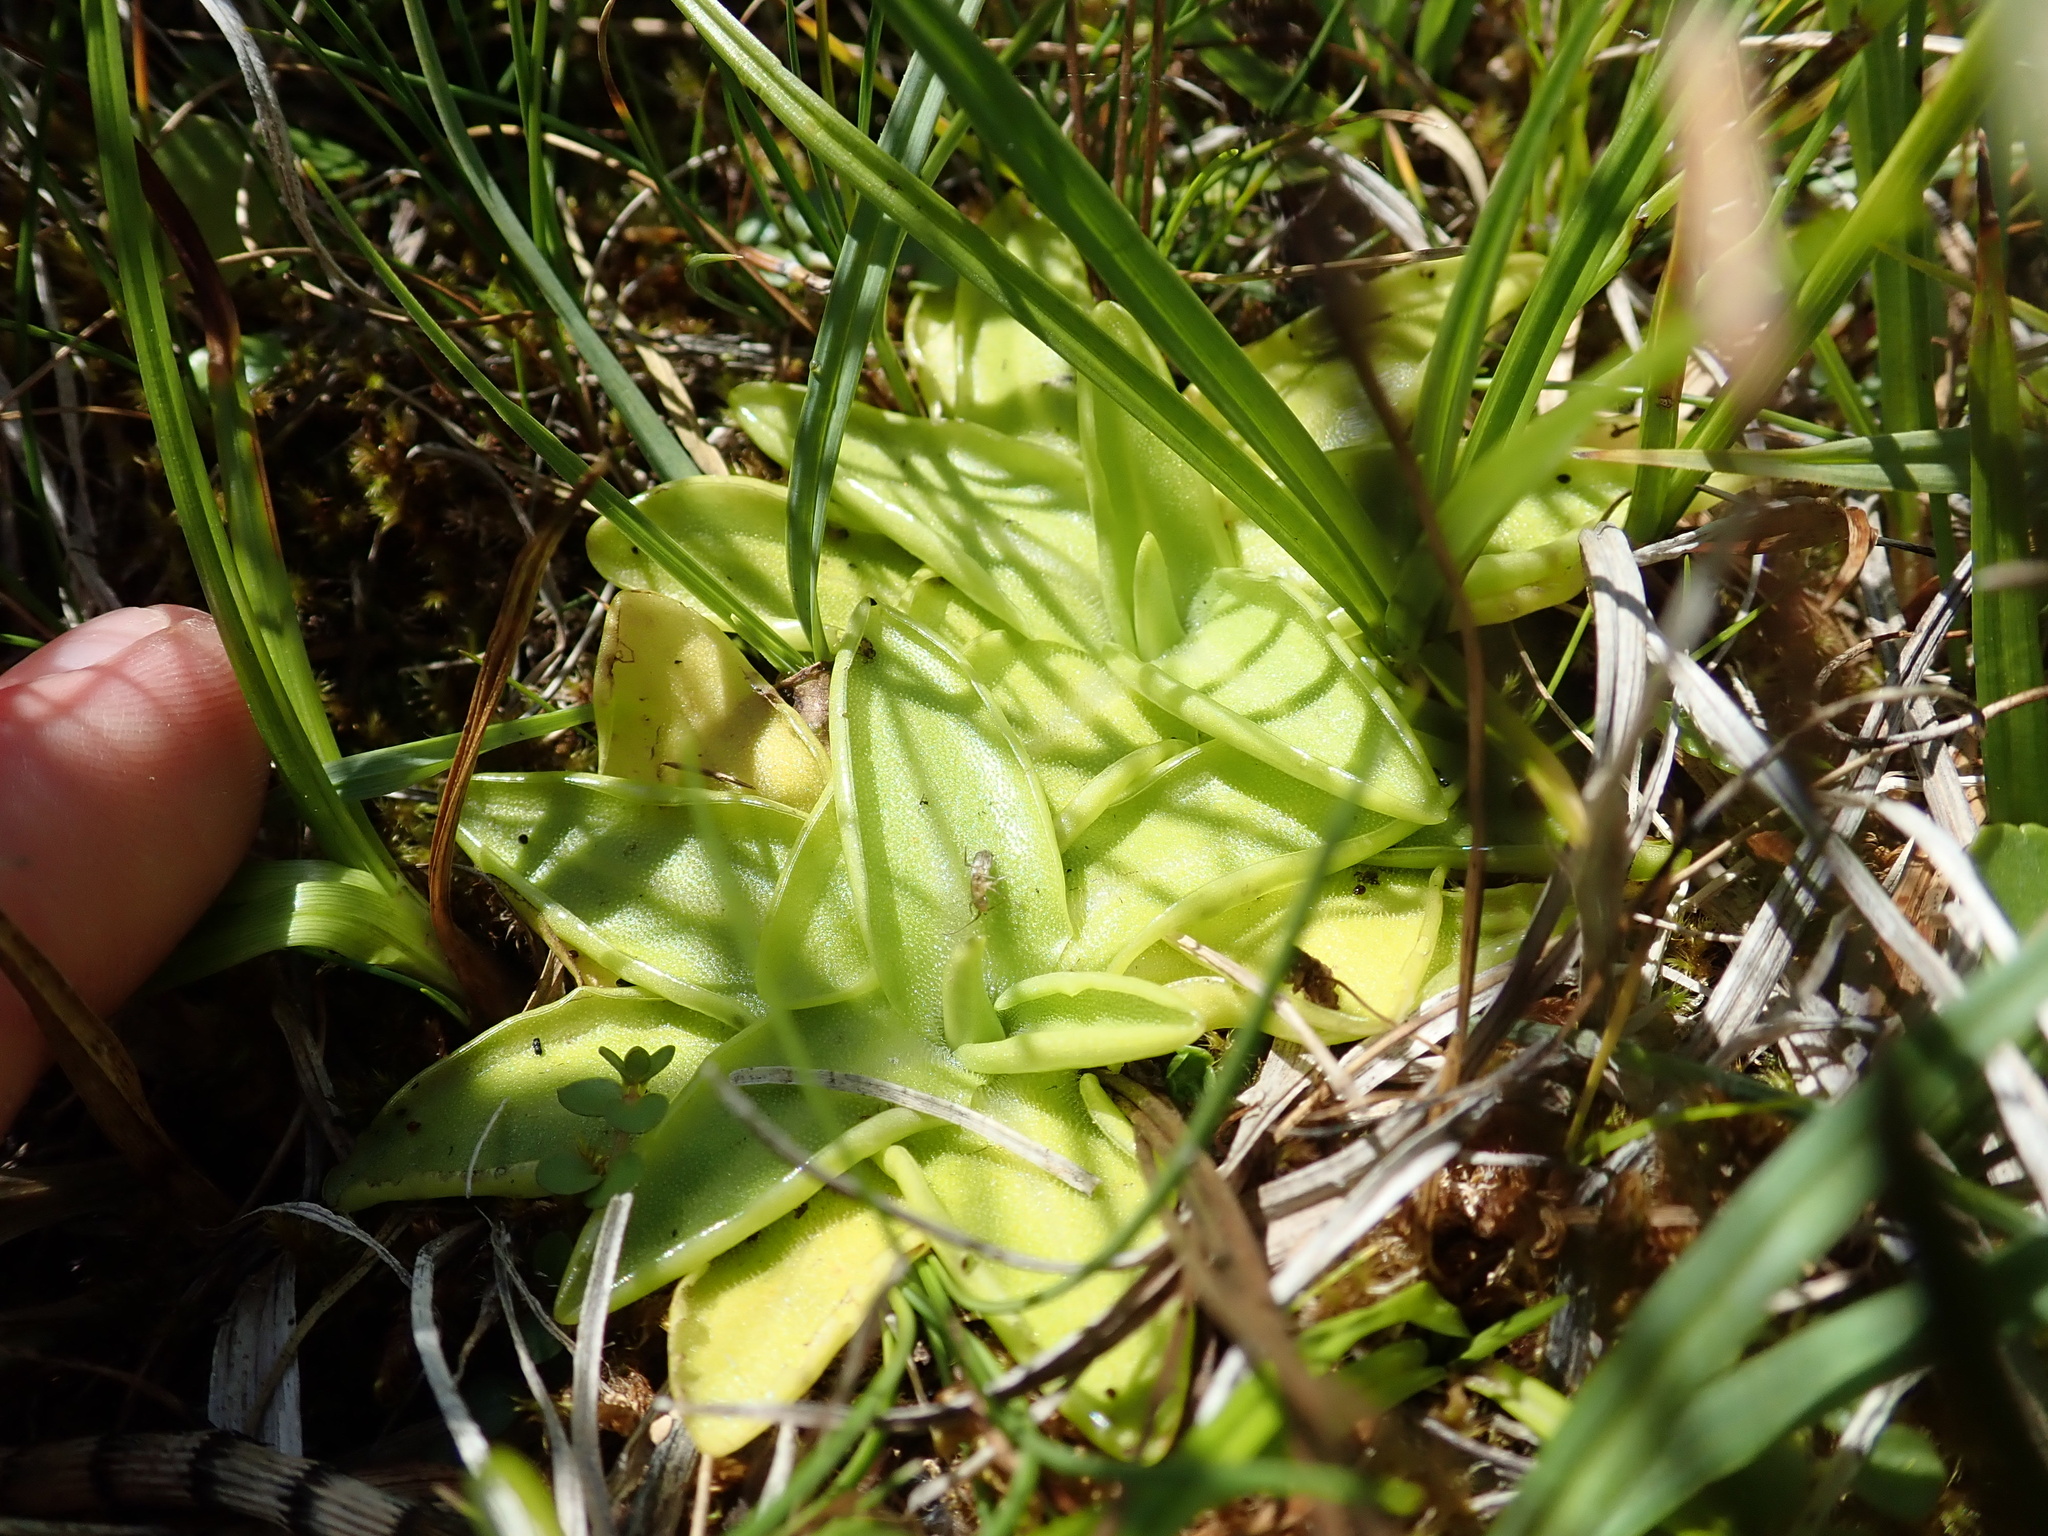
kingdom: Plantae
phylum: Tracheophyta
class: Magnoliopsida
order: Lamiales
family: Lentibulariaceae
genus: Pinguicula
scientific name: Pinguicula vulgaris
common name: Common butterwort
